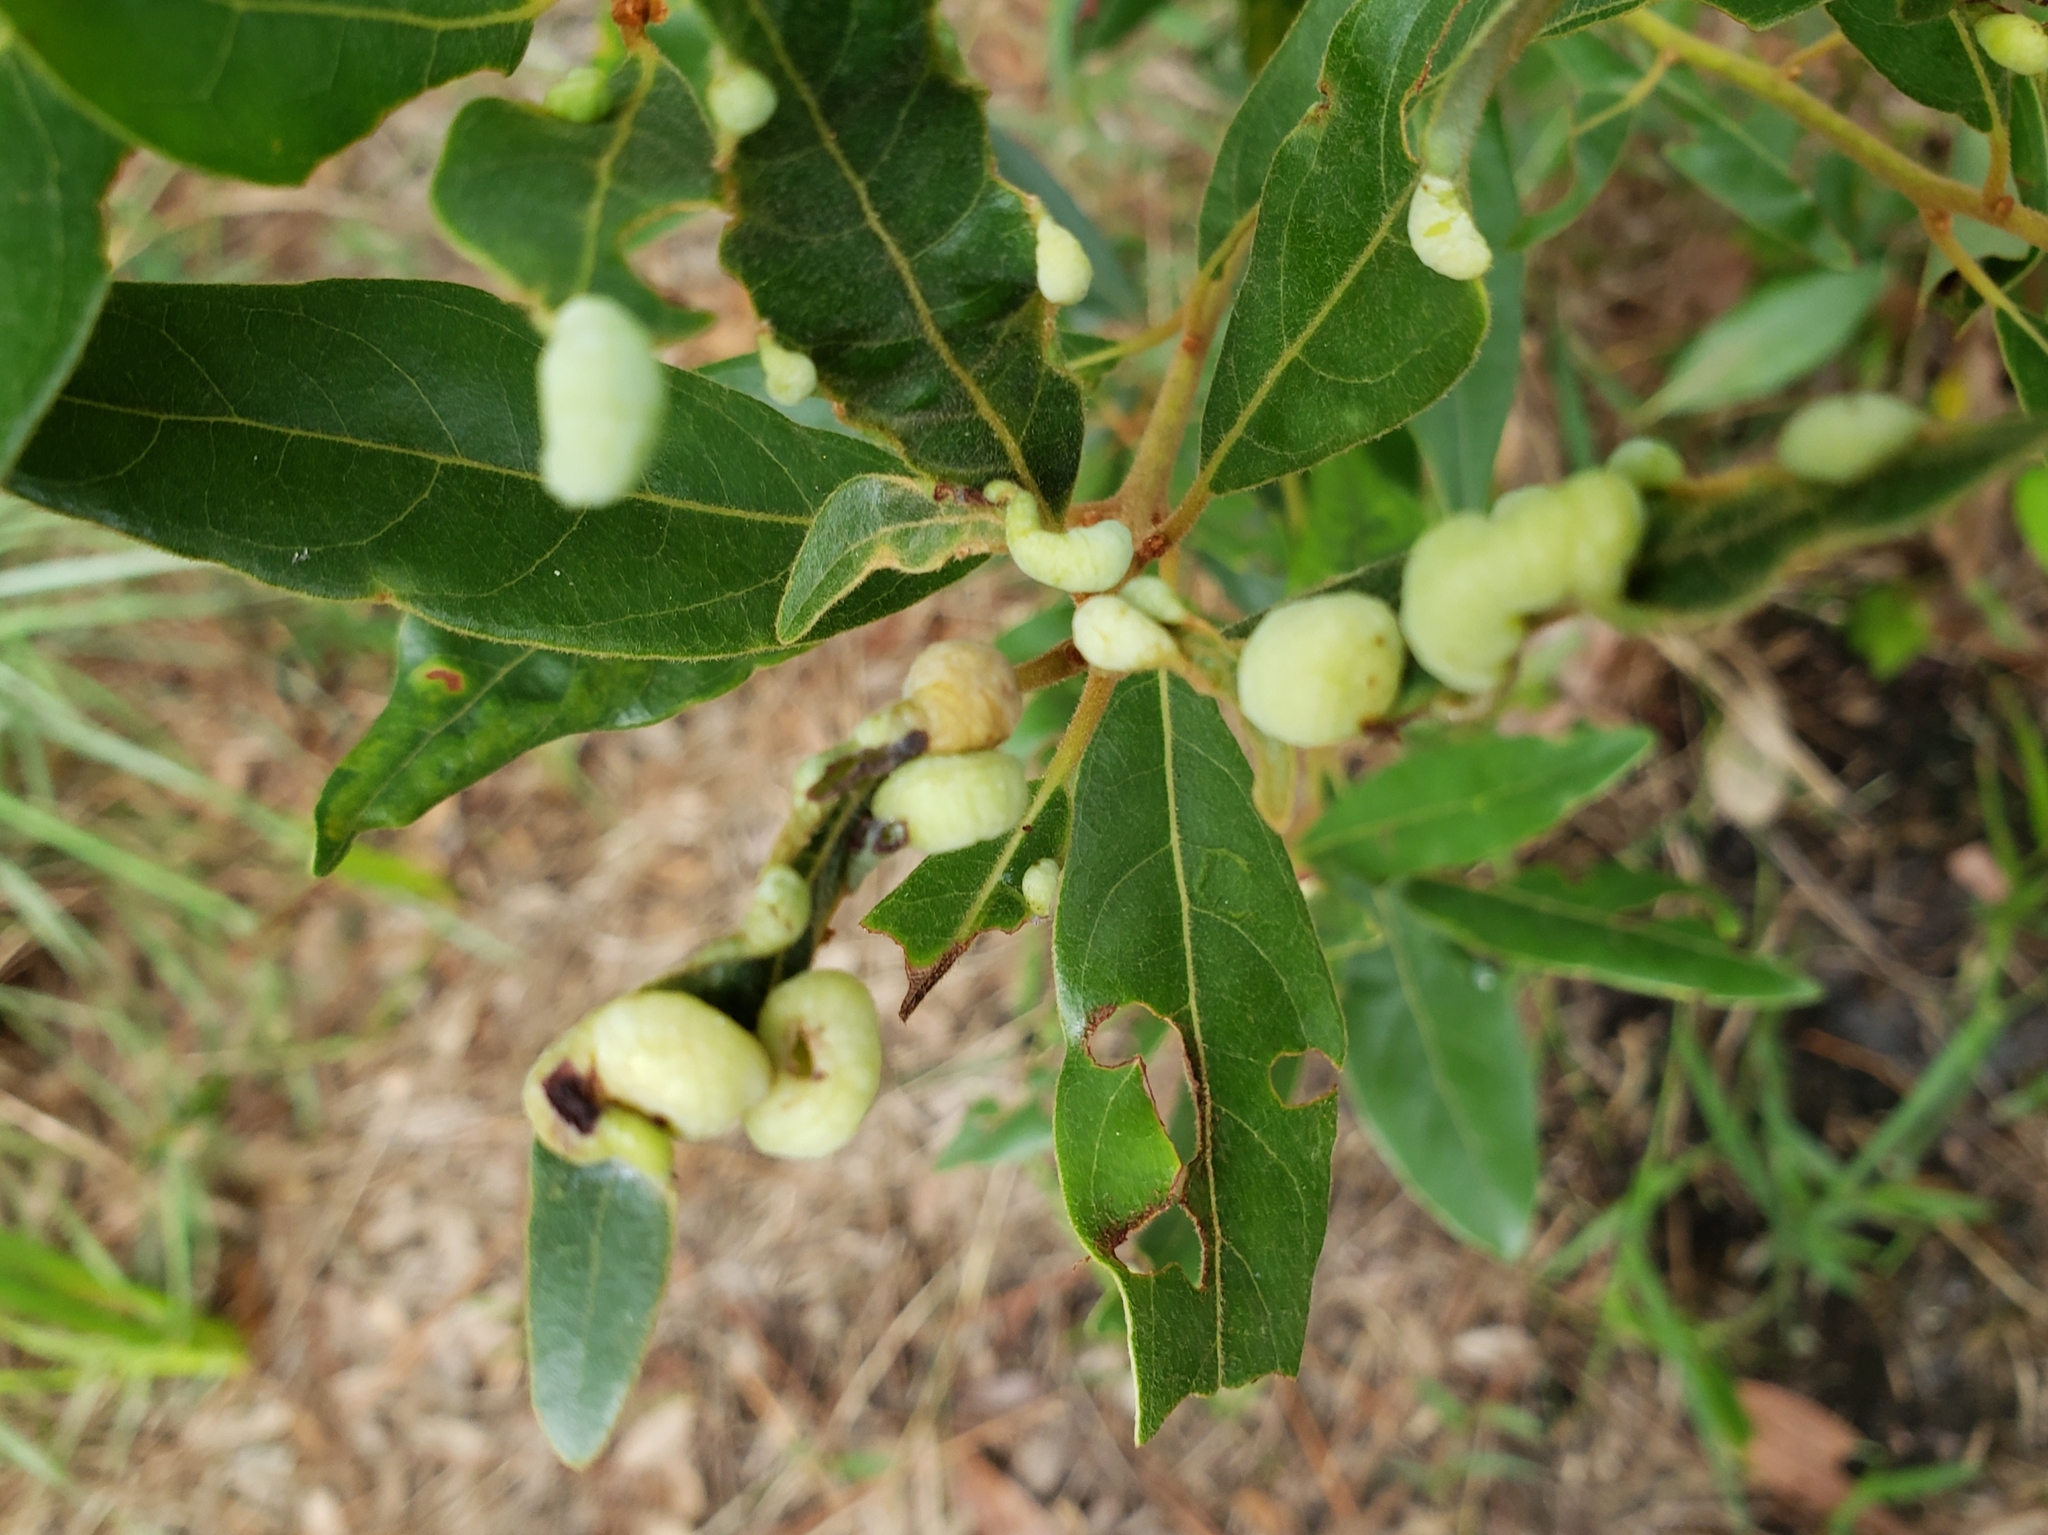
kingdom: Animalia
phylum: Arthropoda
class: Insecta
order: Hemiptera
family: Triozidae
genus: Trioza
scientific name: Trioza magnoliae
